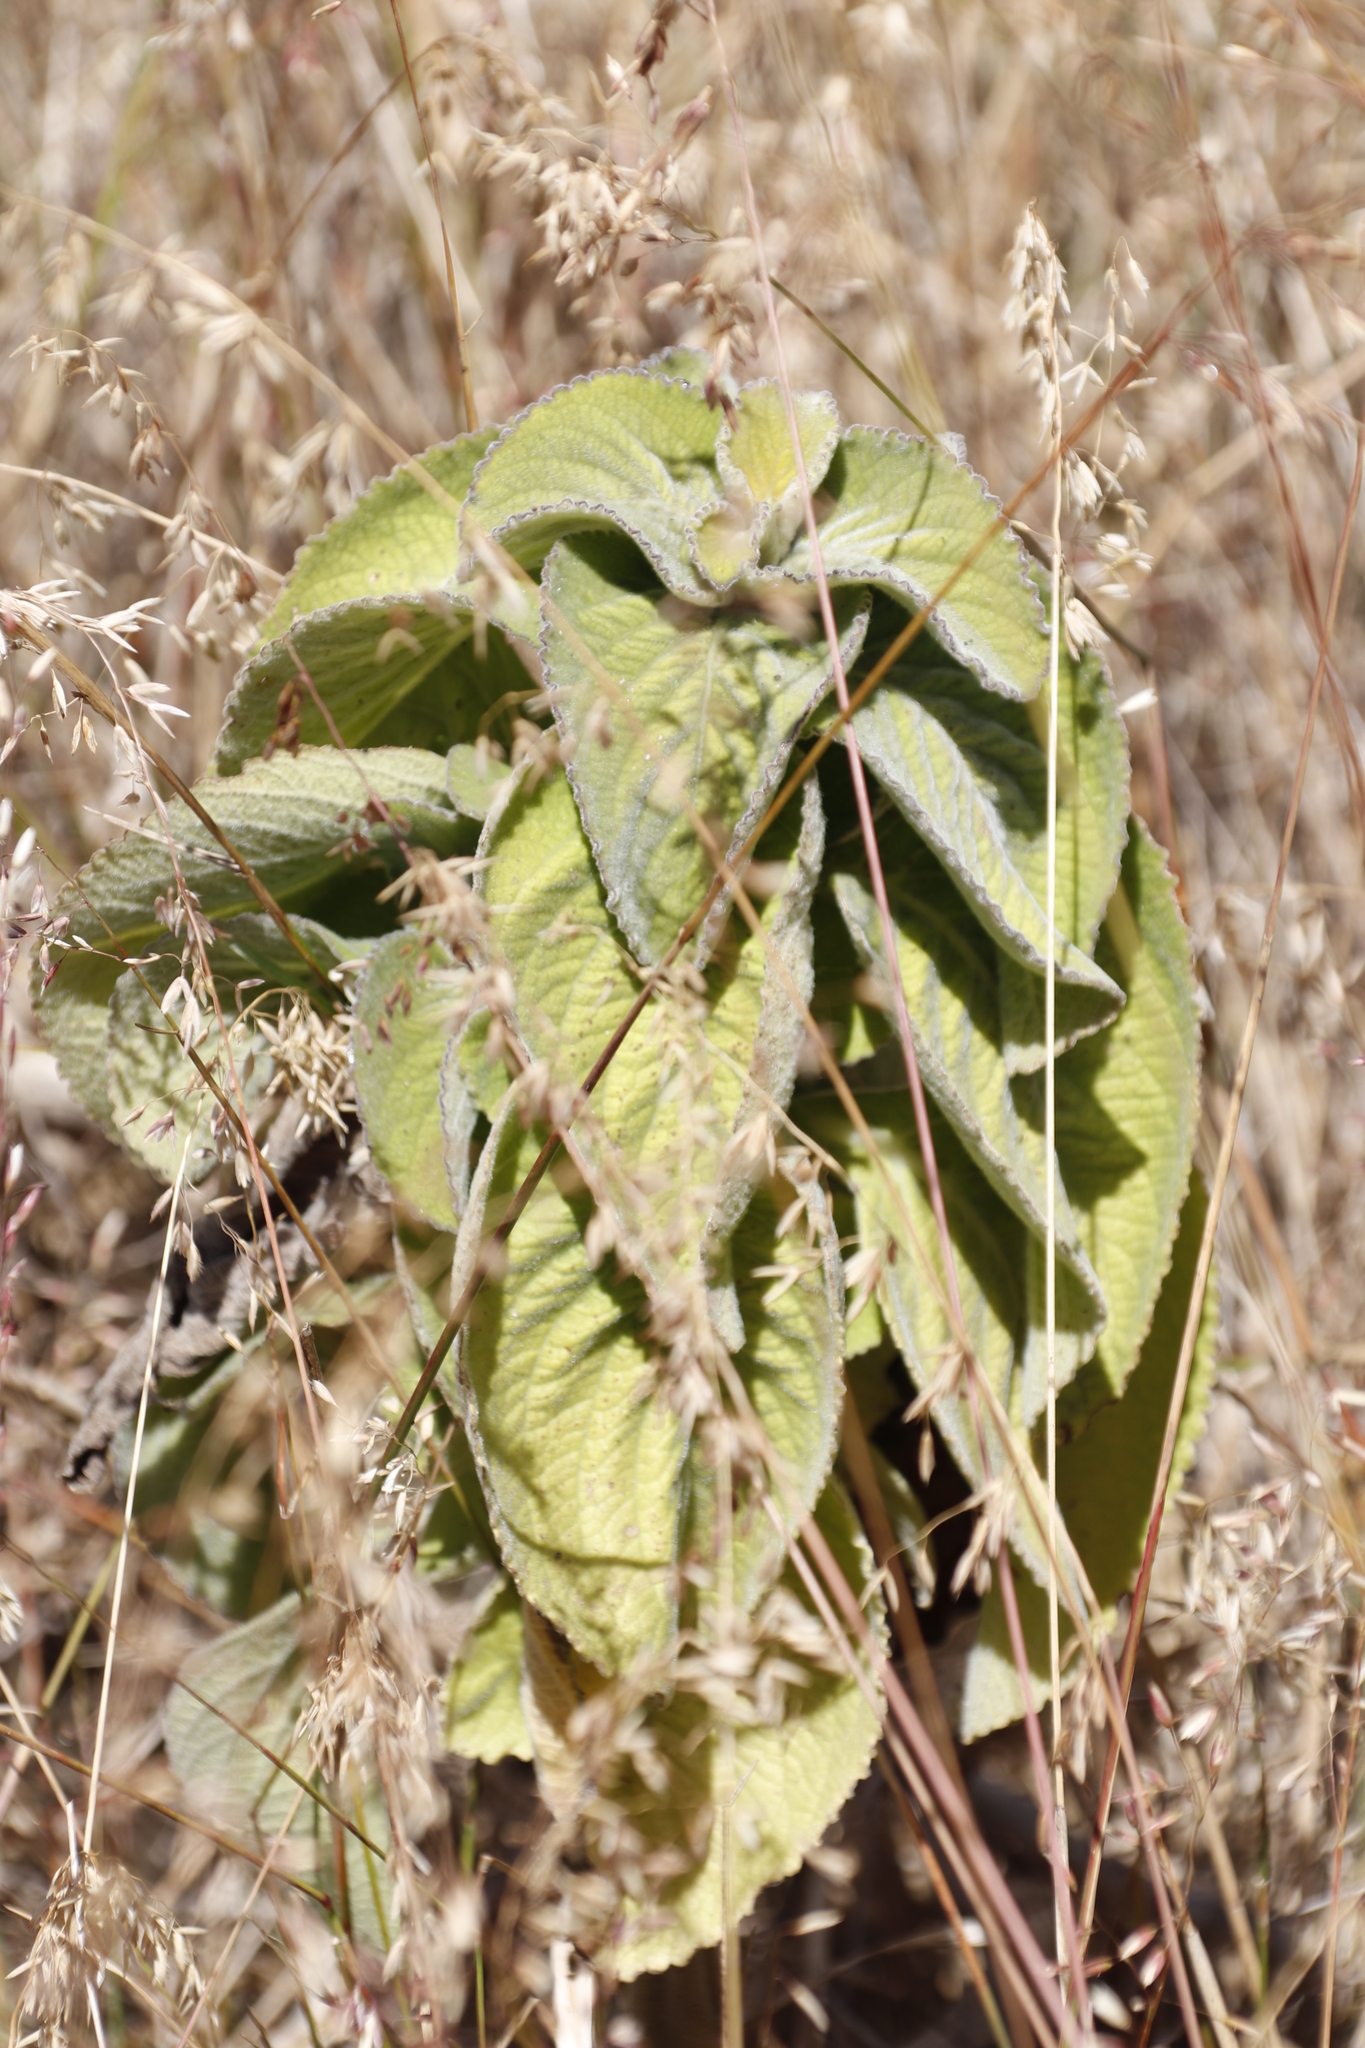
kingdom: Plantae
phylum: Tracheophyta
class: Magnoliopsida
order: Lamiales
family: Lamiaceae
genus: Coleus
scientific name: Coleus barbatus
